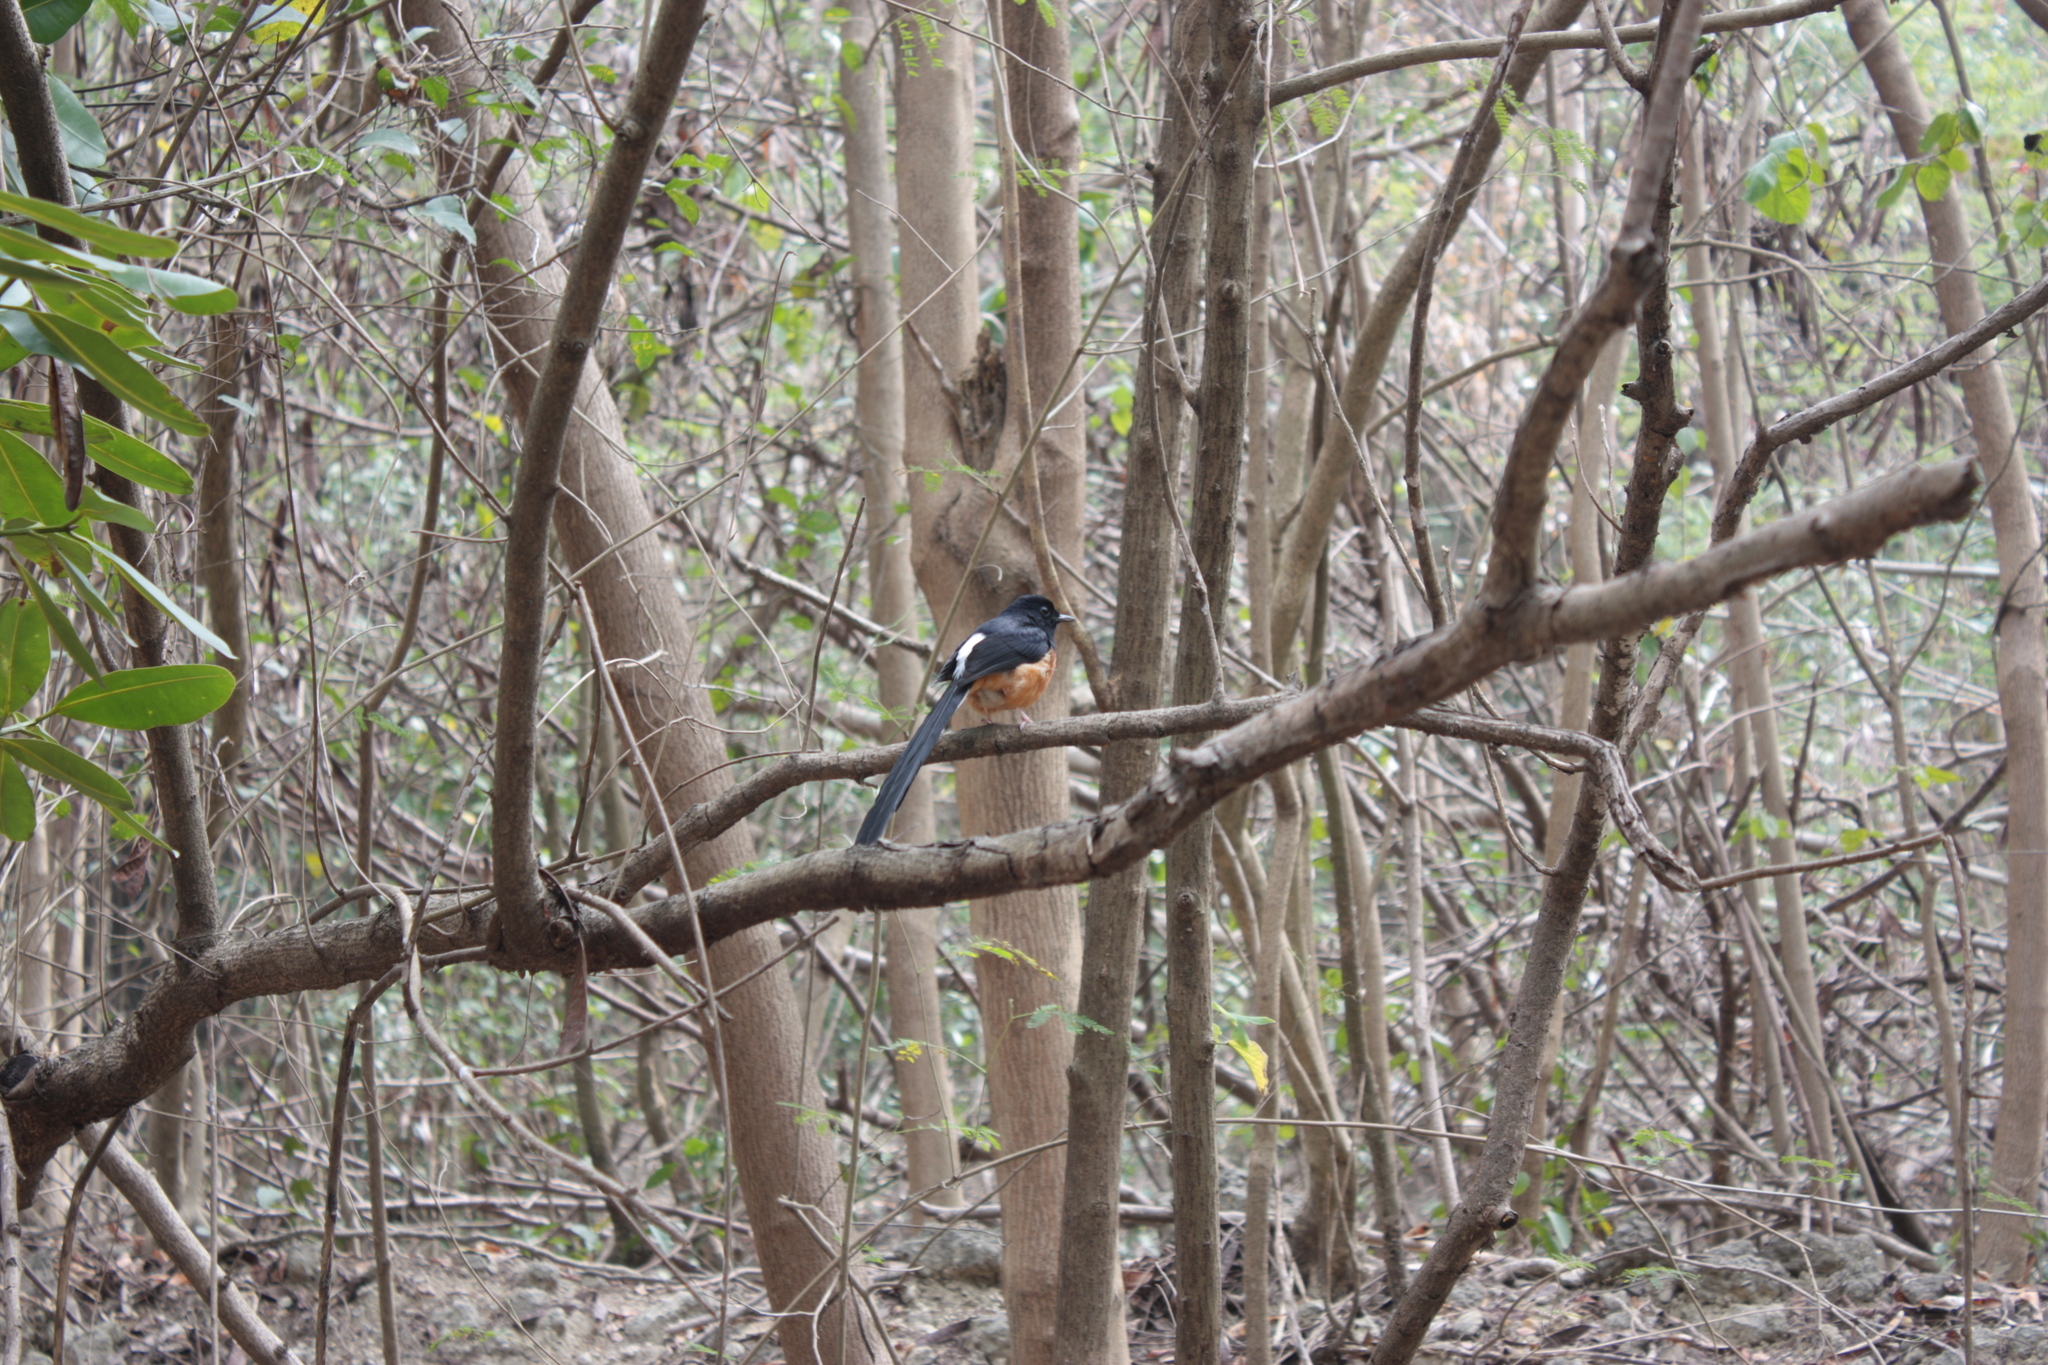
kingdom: Animalia
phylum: Chordata
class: Aves
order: Passeriformes
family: Muscicapidae
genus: Copsychus
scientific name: Copsychus malabaricus
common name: White-rumped shama
